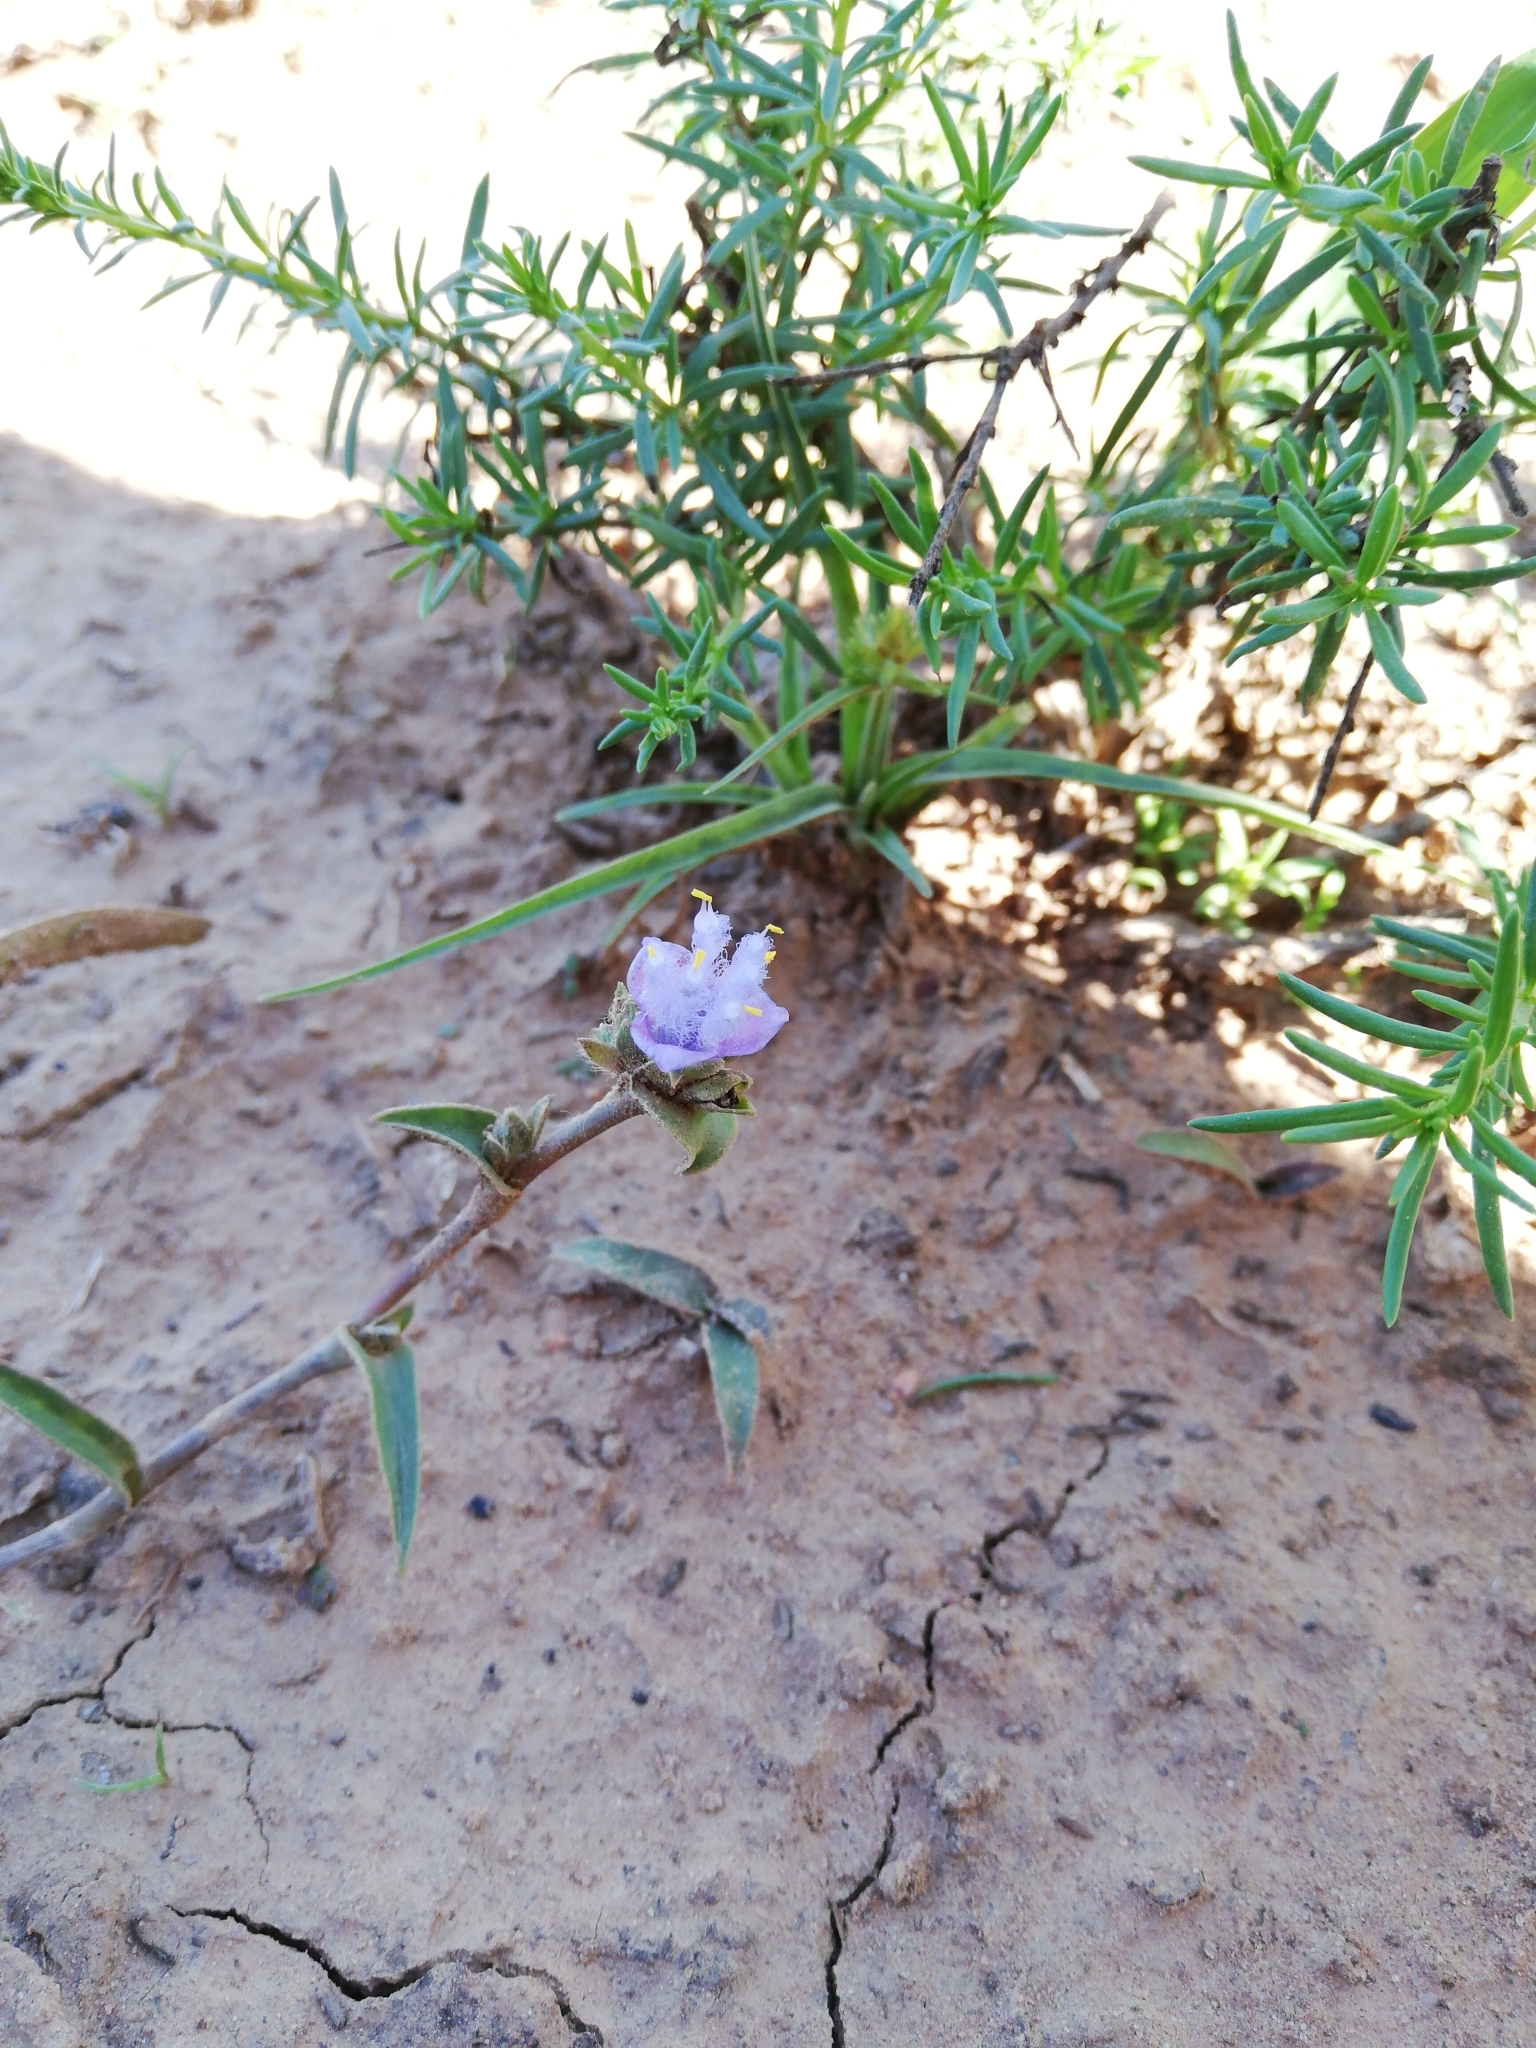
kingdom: Plantae
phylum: Tracheophyta
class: Liliopsida
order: Commelinales
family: Commelinaceae
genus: Cyanotis
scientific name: Cyanotis speciosa
